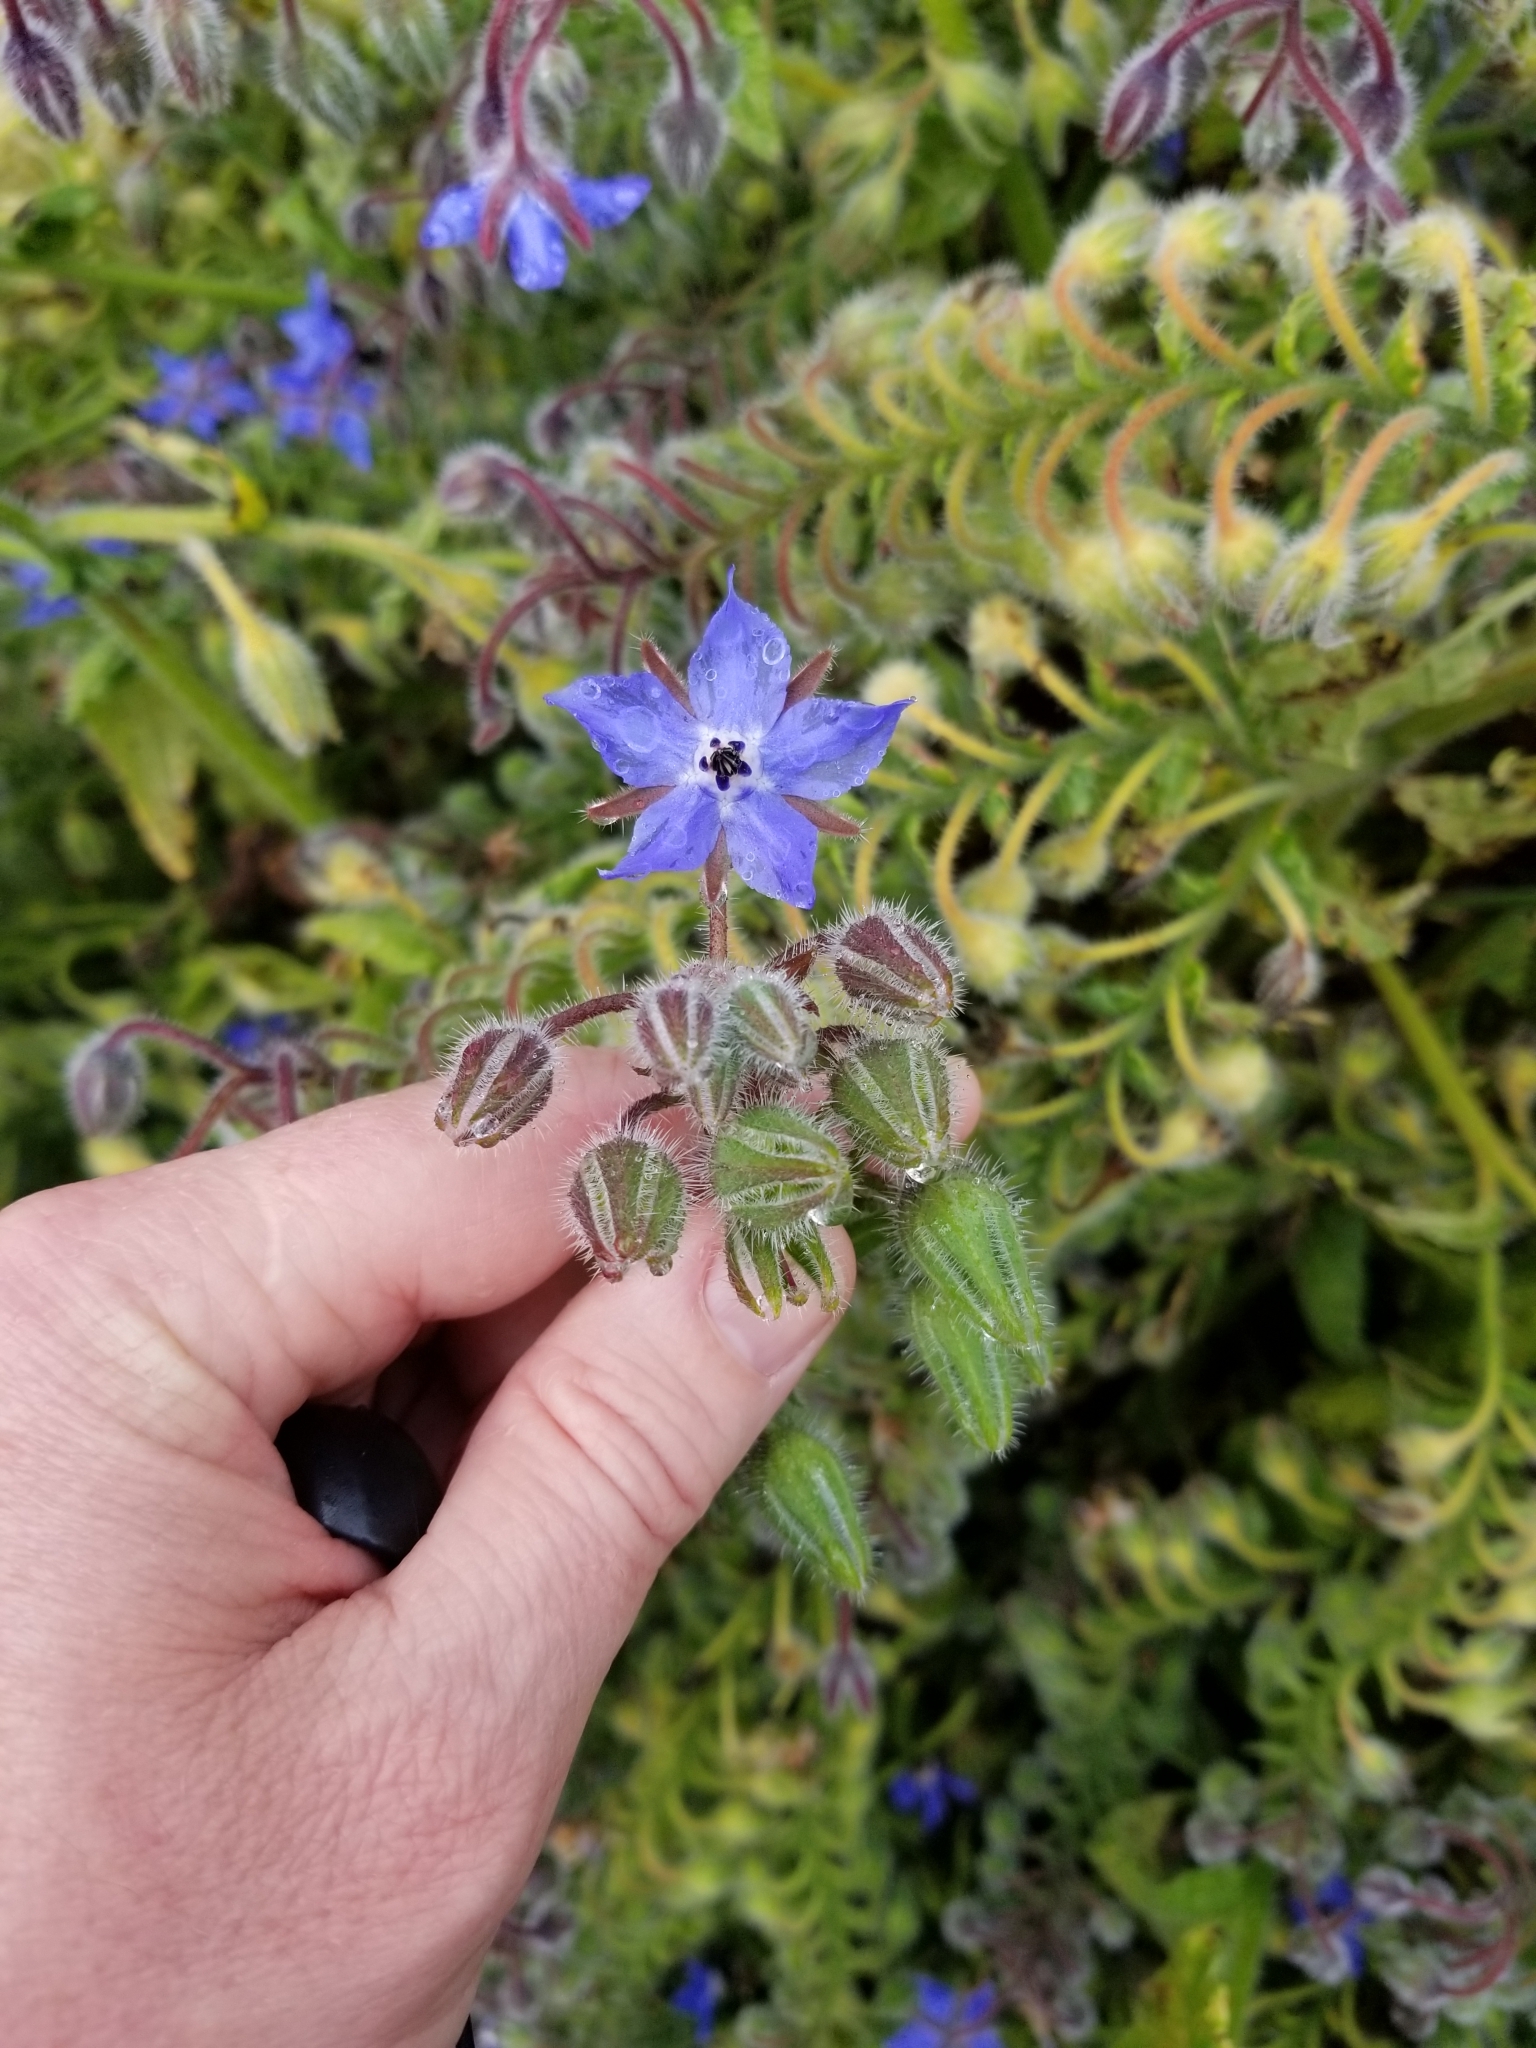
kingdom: Plantae
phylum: Tracheophyta
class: Magnoliopsida
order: Boraginales
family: Boraginaceae
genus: Borago
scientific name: Borago officinalis
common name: Borage
